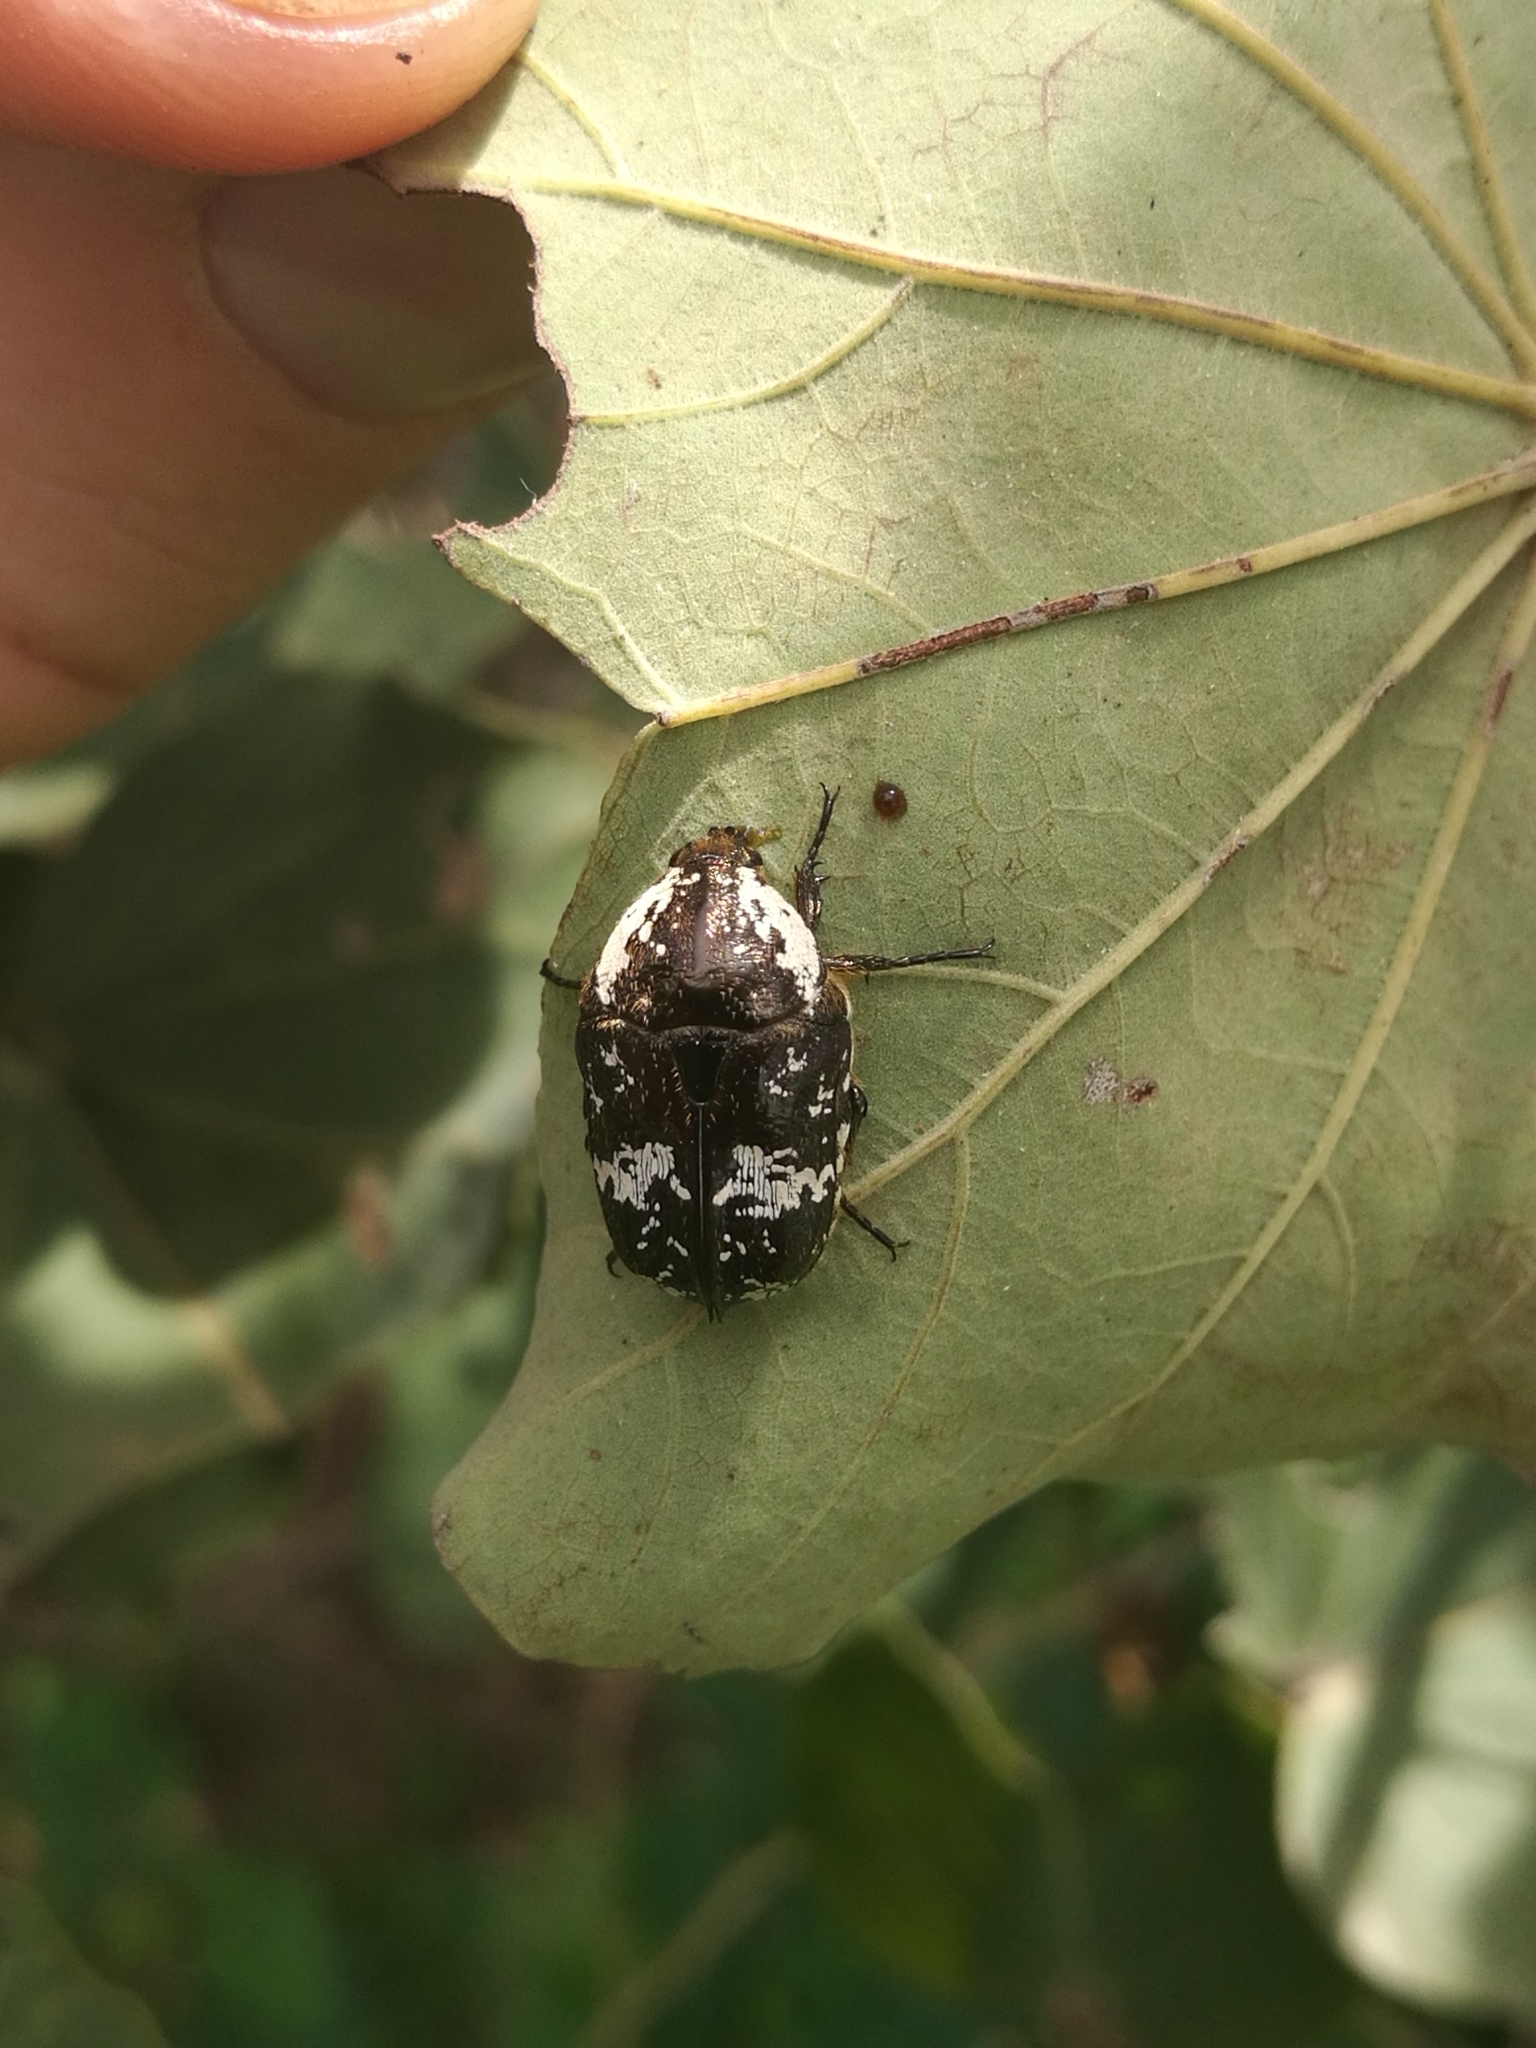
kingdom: Animalia
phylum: Arthropoda
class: Insecta
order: Coleoptera
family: Scarabaeidae
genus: Xeloma
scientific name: Xeloma burmeisteri
